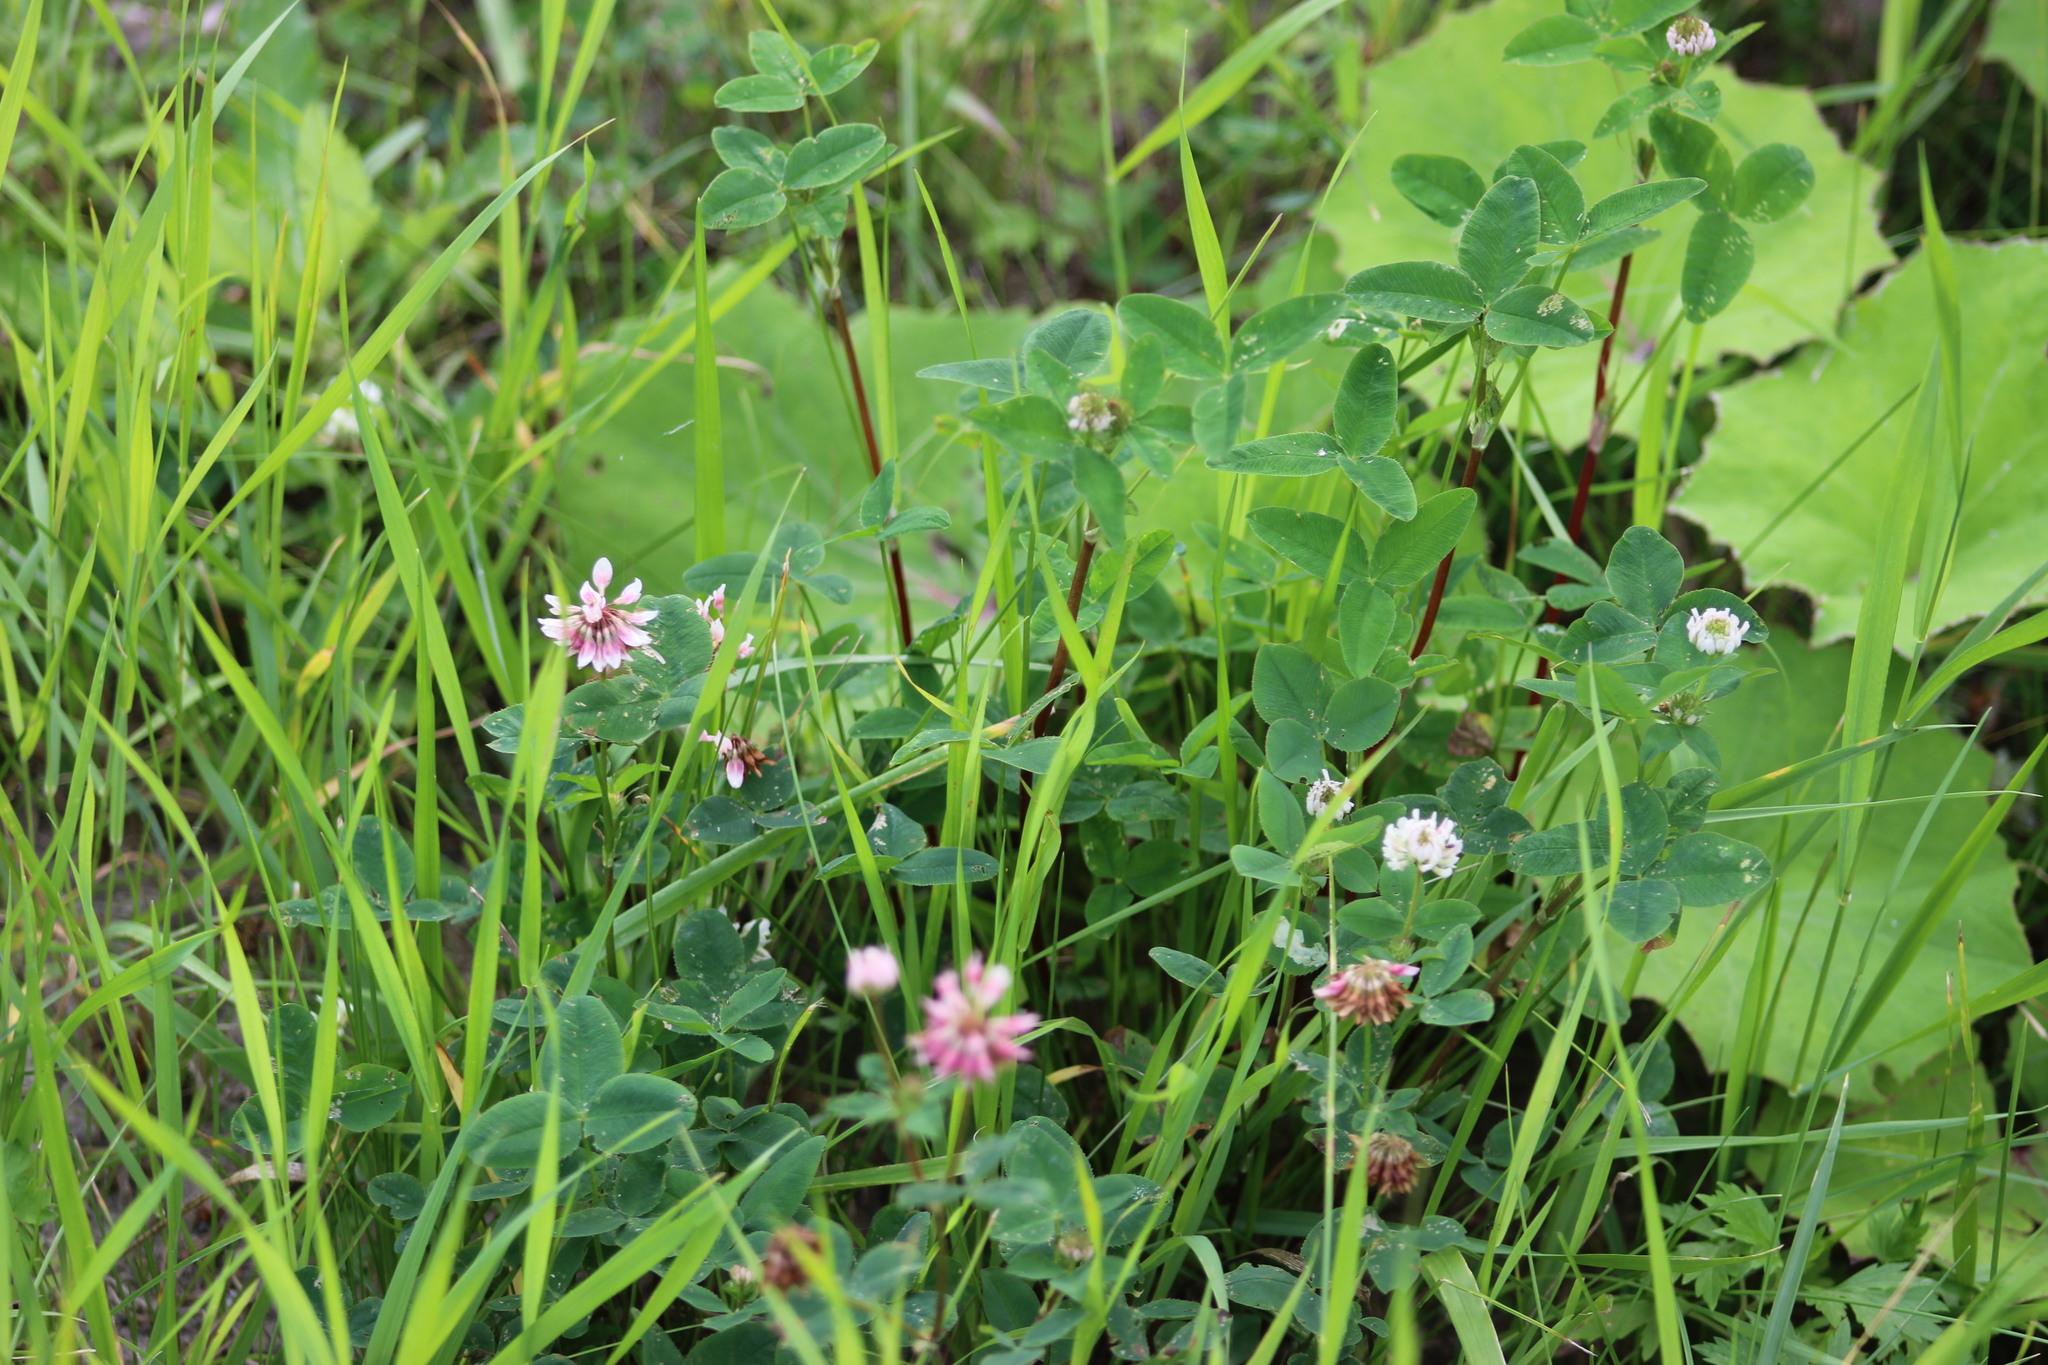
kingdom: Plantae
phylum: Tracheophyta
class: Magnoliopsida
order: Fabales
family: Fabaceae
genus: Trifolium
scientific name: Trifolium hybridum
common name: Alsike clover
